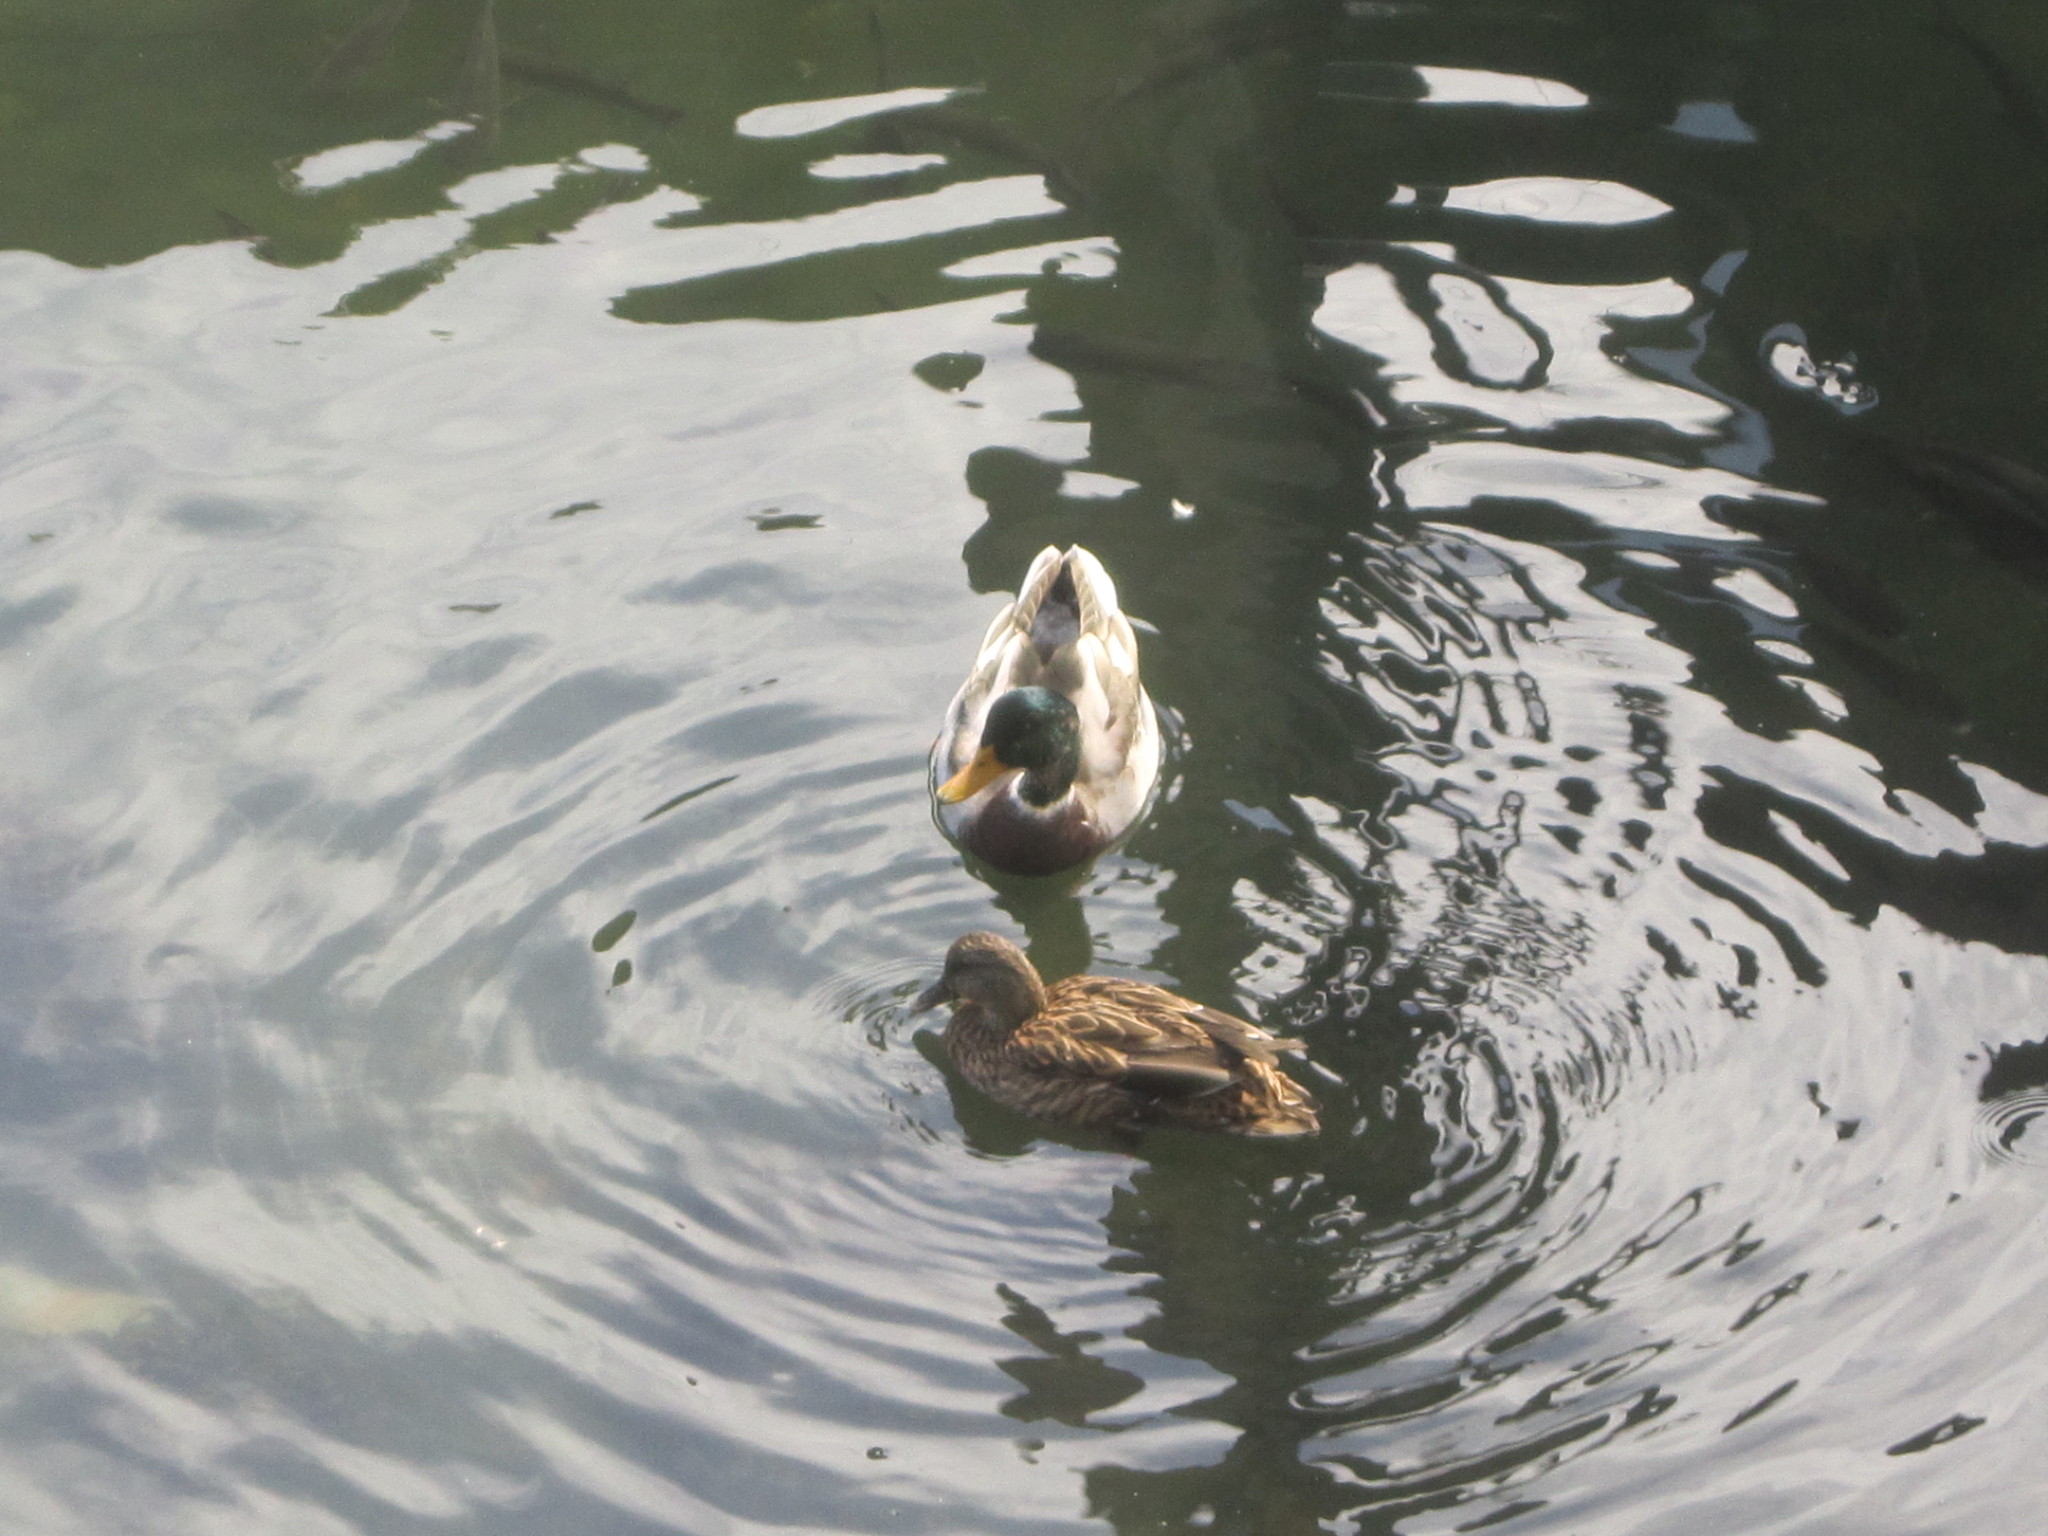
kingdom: Animalia
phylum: Chordata
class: Aves
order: Anseriformes
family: Anatidae
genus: Anas
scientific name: Anas platyrhynchos
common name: Mallard
